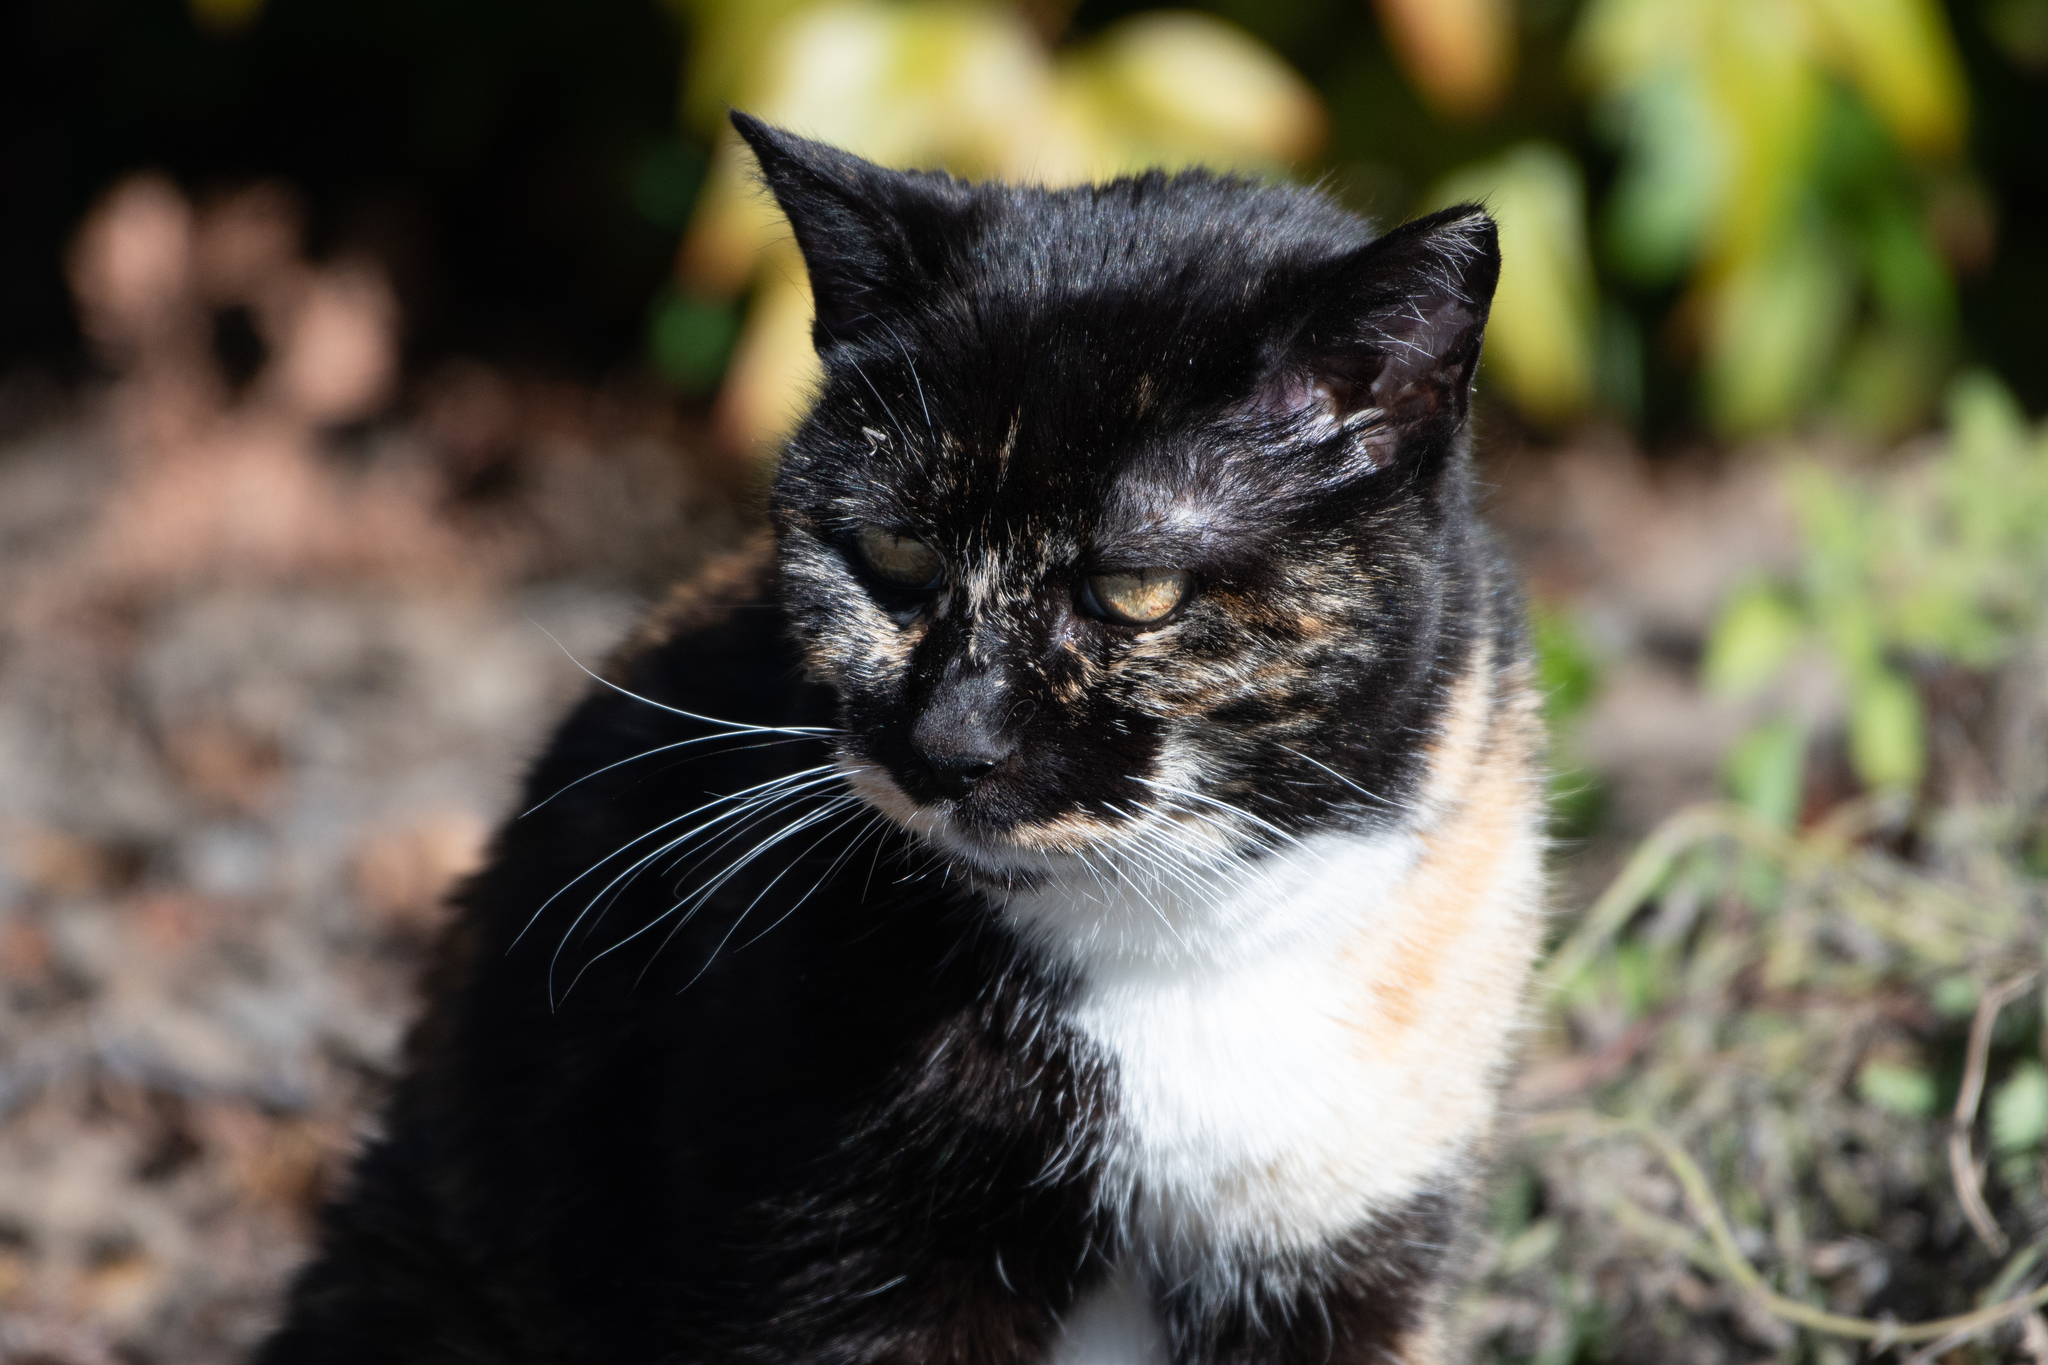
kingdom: Animalia
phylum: Chordata
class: Mammalia
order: Carnivora
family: Felidae
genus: Felis
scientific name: Felis catus
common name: Domestic cat
